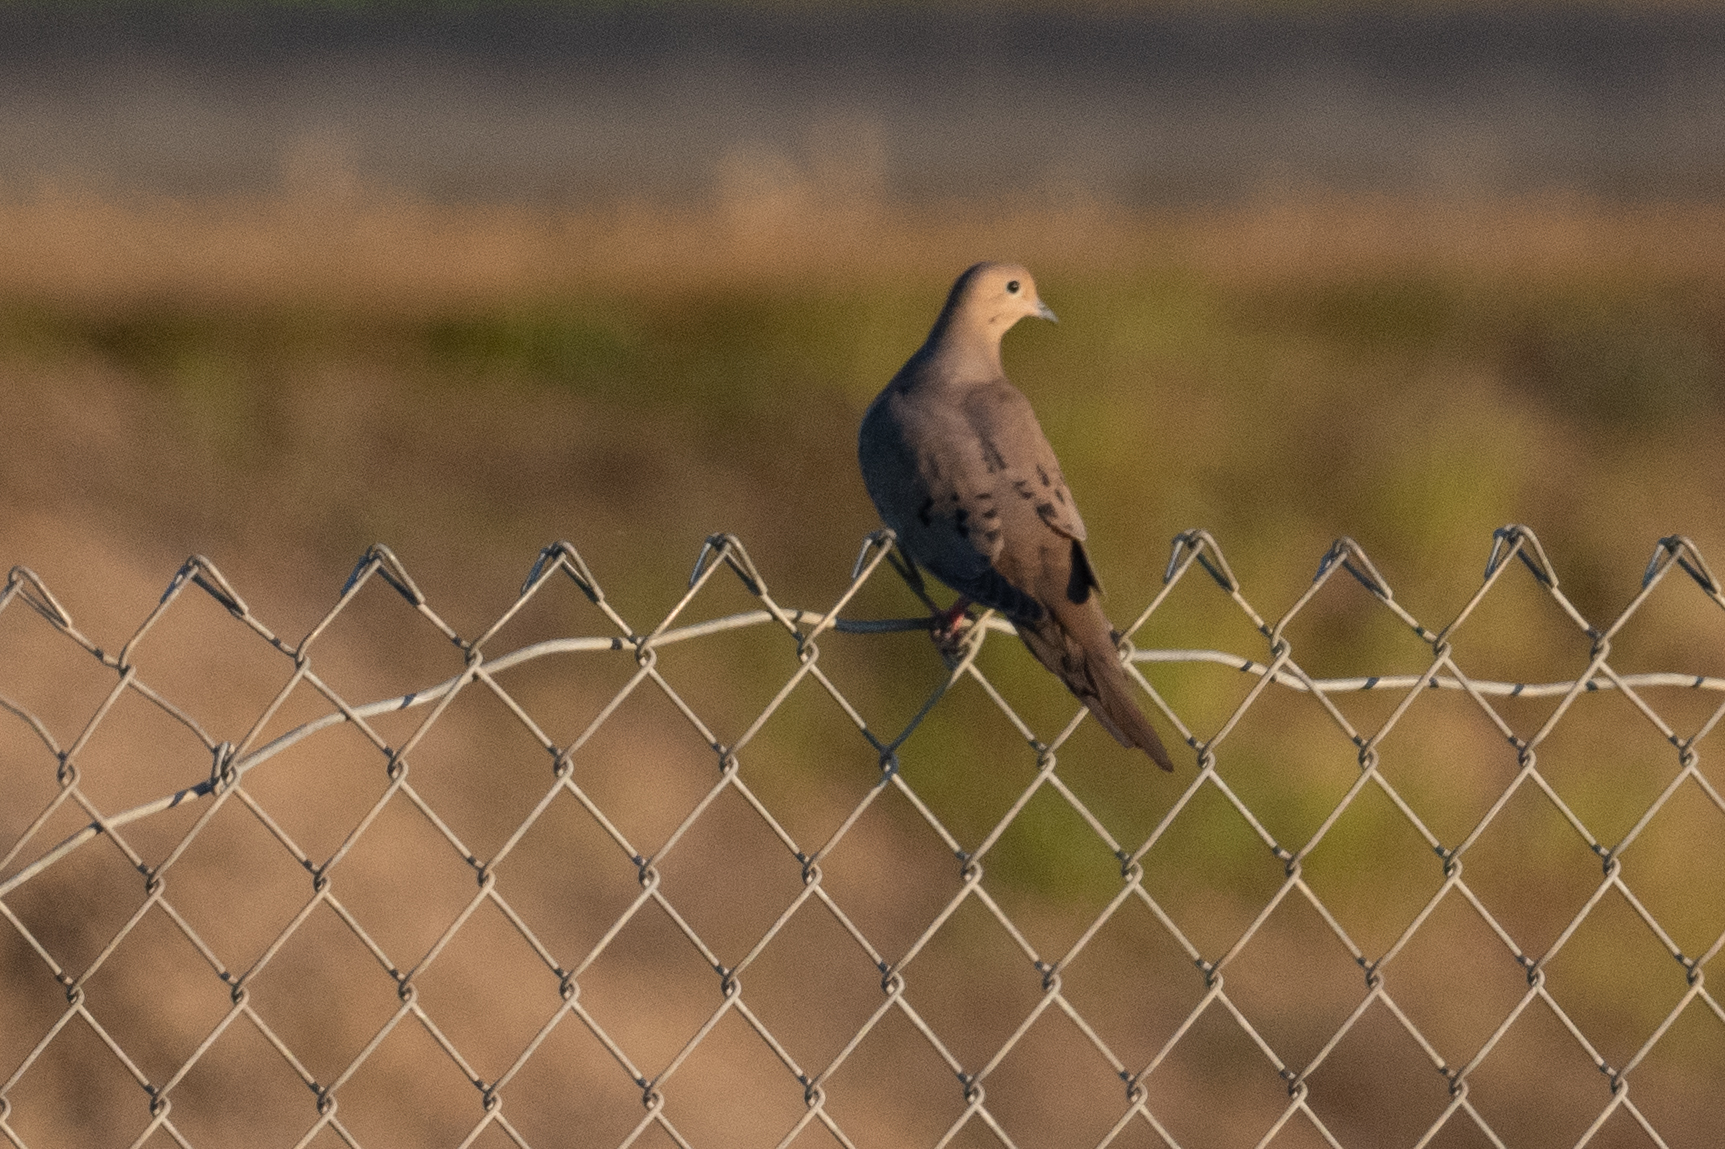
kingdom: Animalia
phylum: Chordata
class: Aves
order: Columbiformes
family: Columbidae
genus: Zenaida
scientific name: Zenaida macroura
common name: Mourning dove
